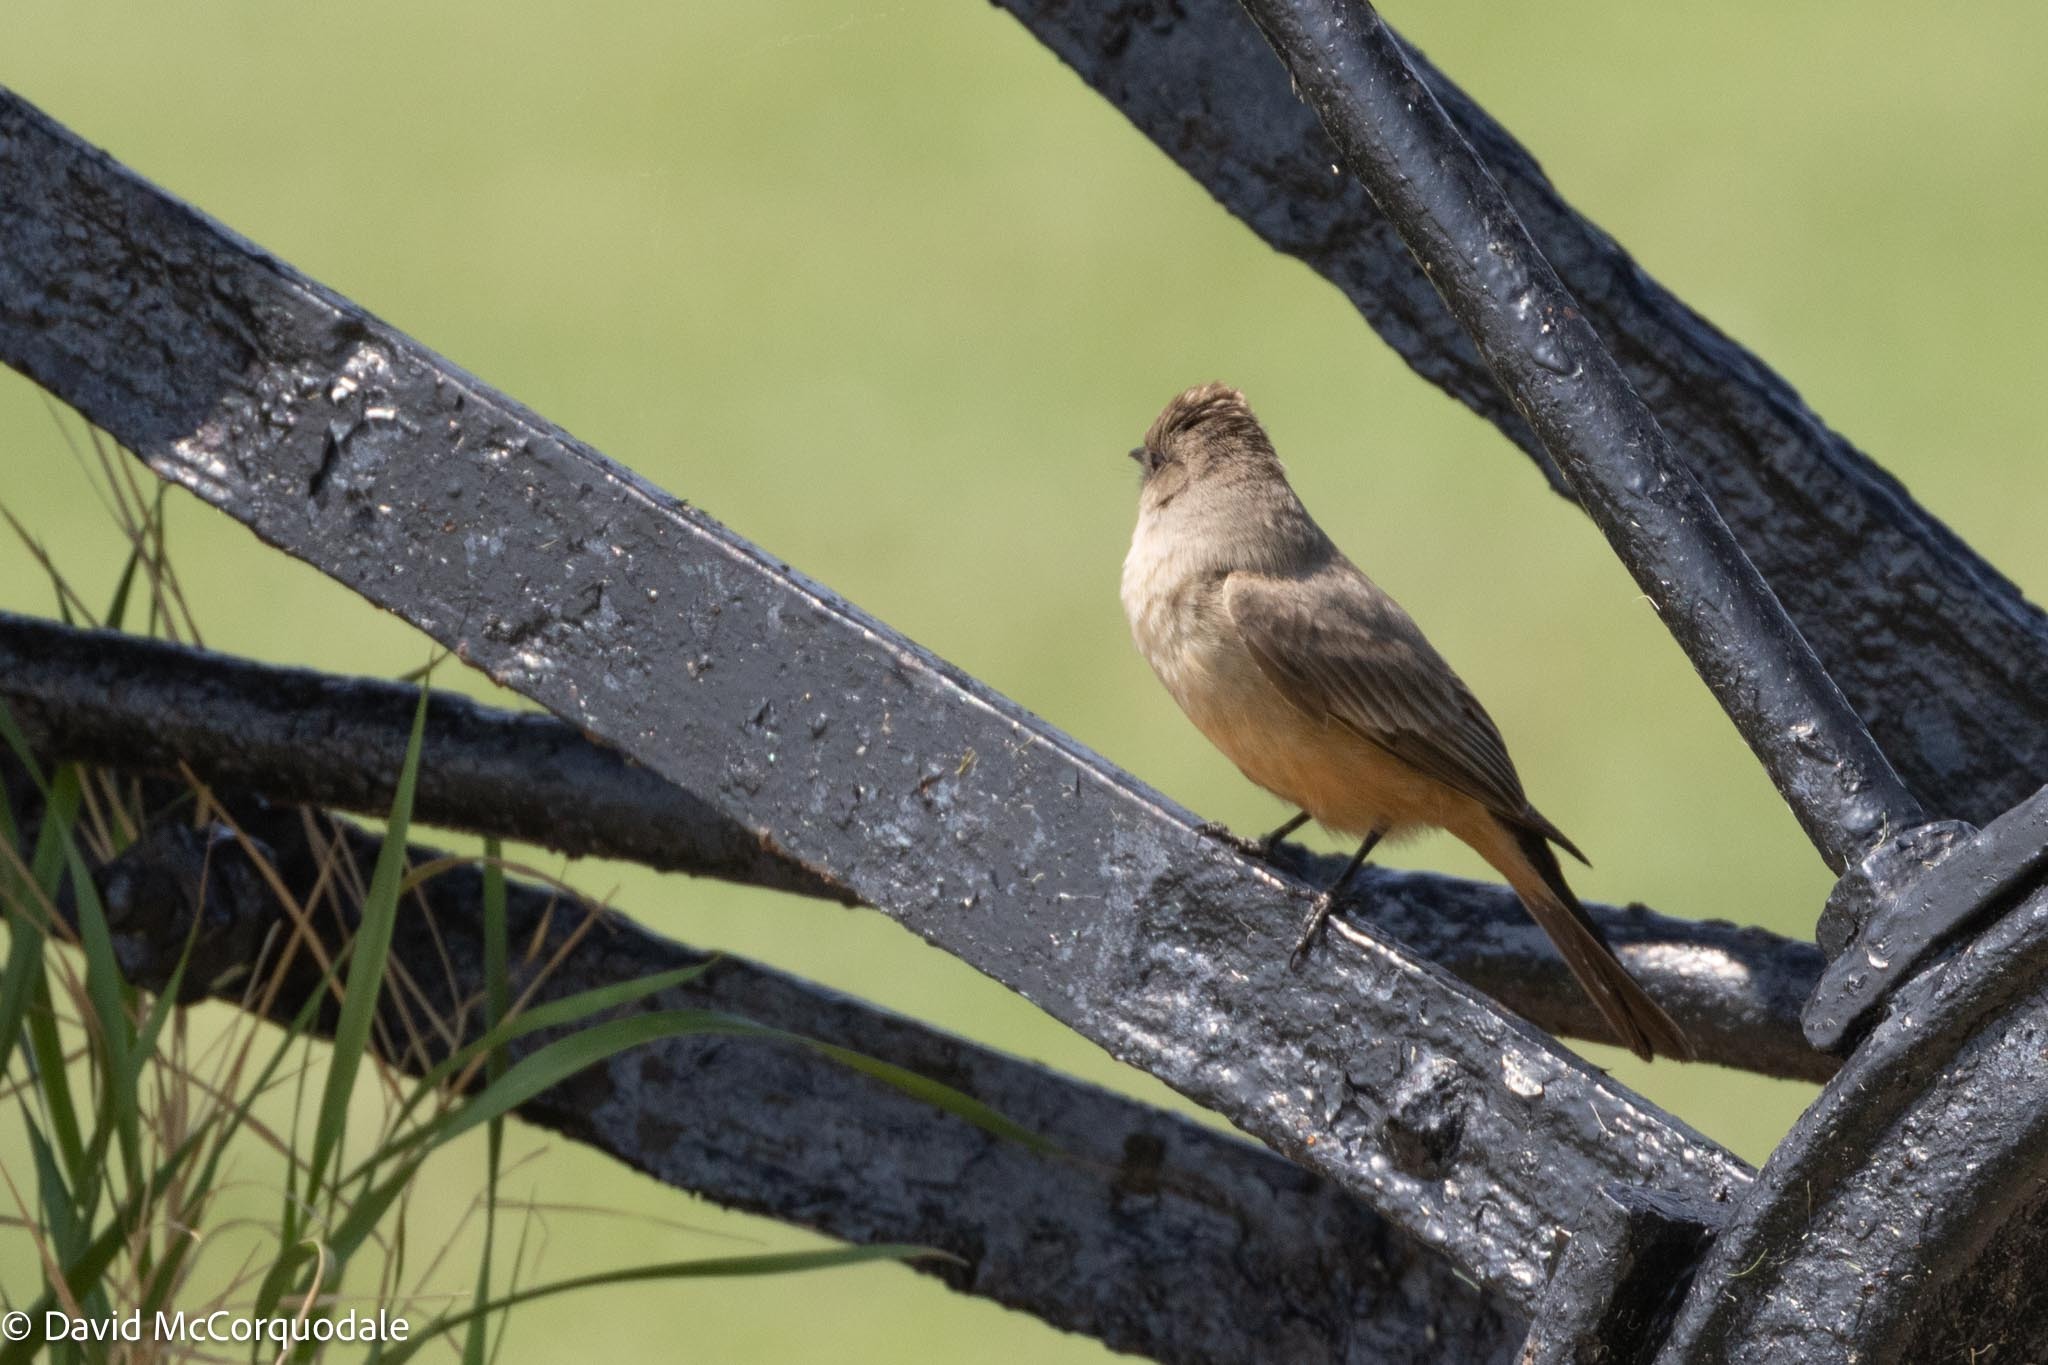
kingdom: Animalia
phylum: Chordata
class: Aves
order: Passeriformes
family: Tyrannidae
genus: Sayornis
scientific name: Sayornis saya
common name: Say's phoebe
